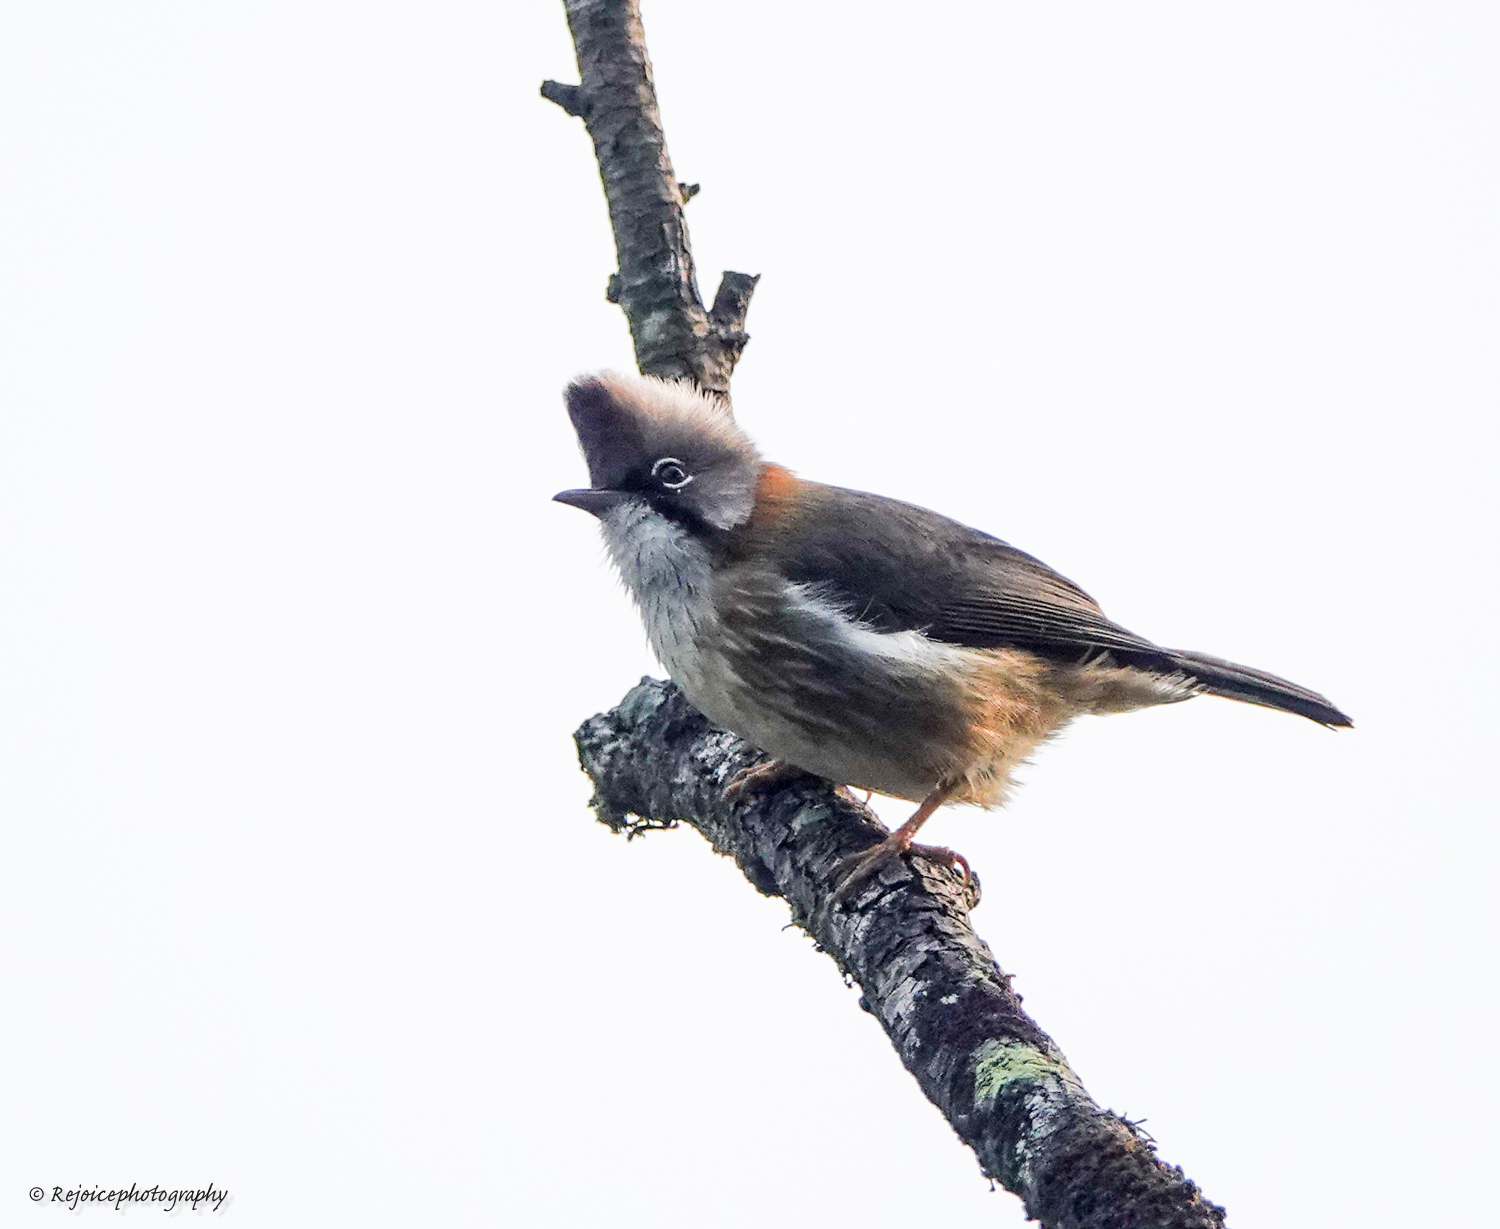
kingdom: Animalia
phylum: Chordata
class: Aves
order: Passeriformes
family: Zosteropidae
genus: Yuhina
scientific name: Yuhina flavicollis
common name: Whiskered yuhina
